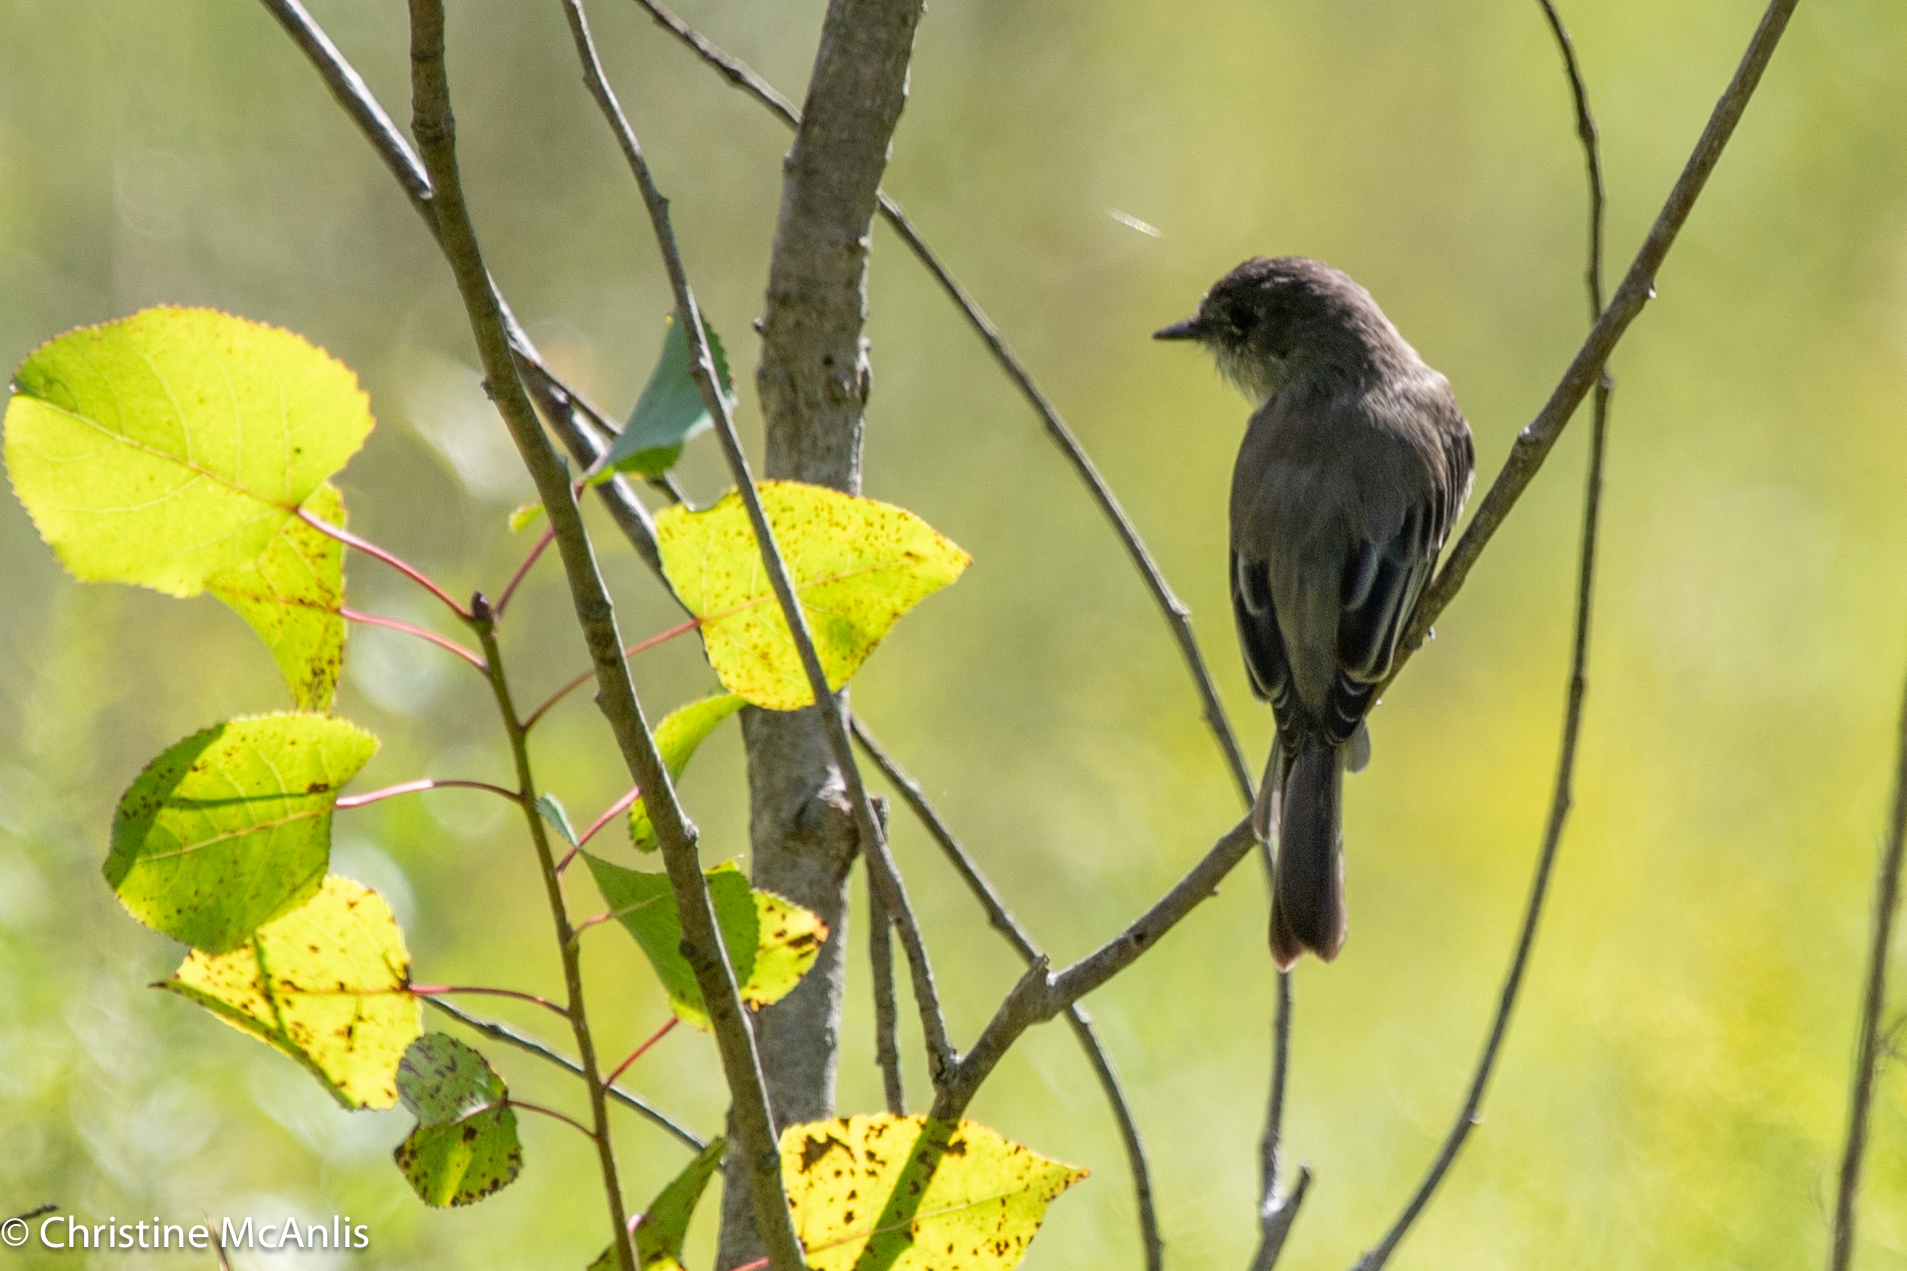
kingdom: Animalia
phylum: Chordata
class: Aves
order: Passeriformes
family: Tyrannidae
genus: Sayornis
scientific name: Sayornis phoebe
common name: Eastern phoebe
